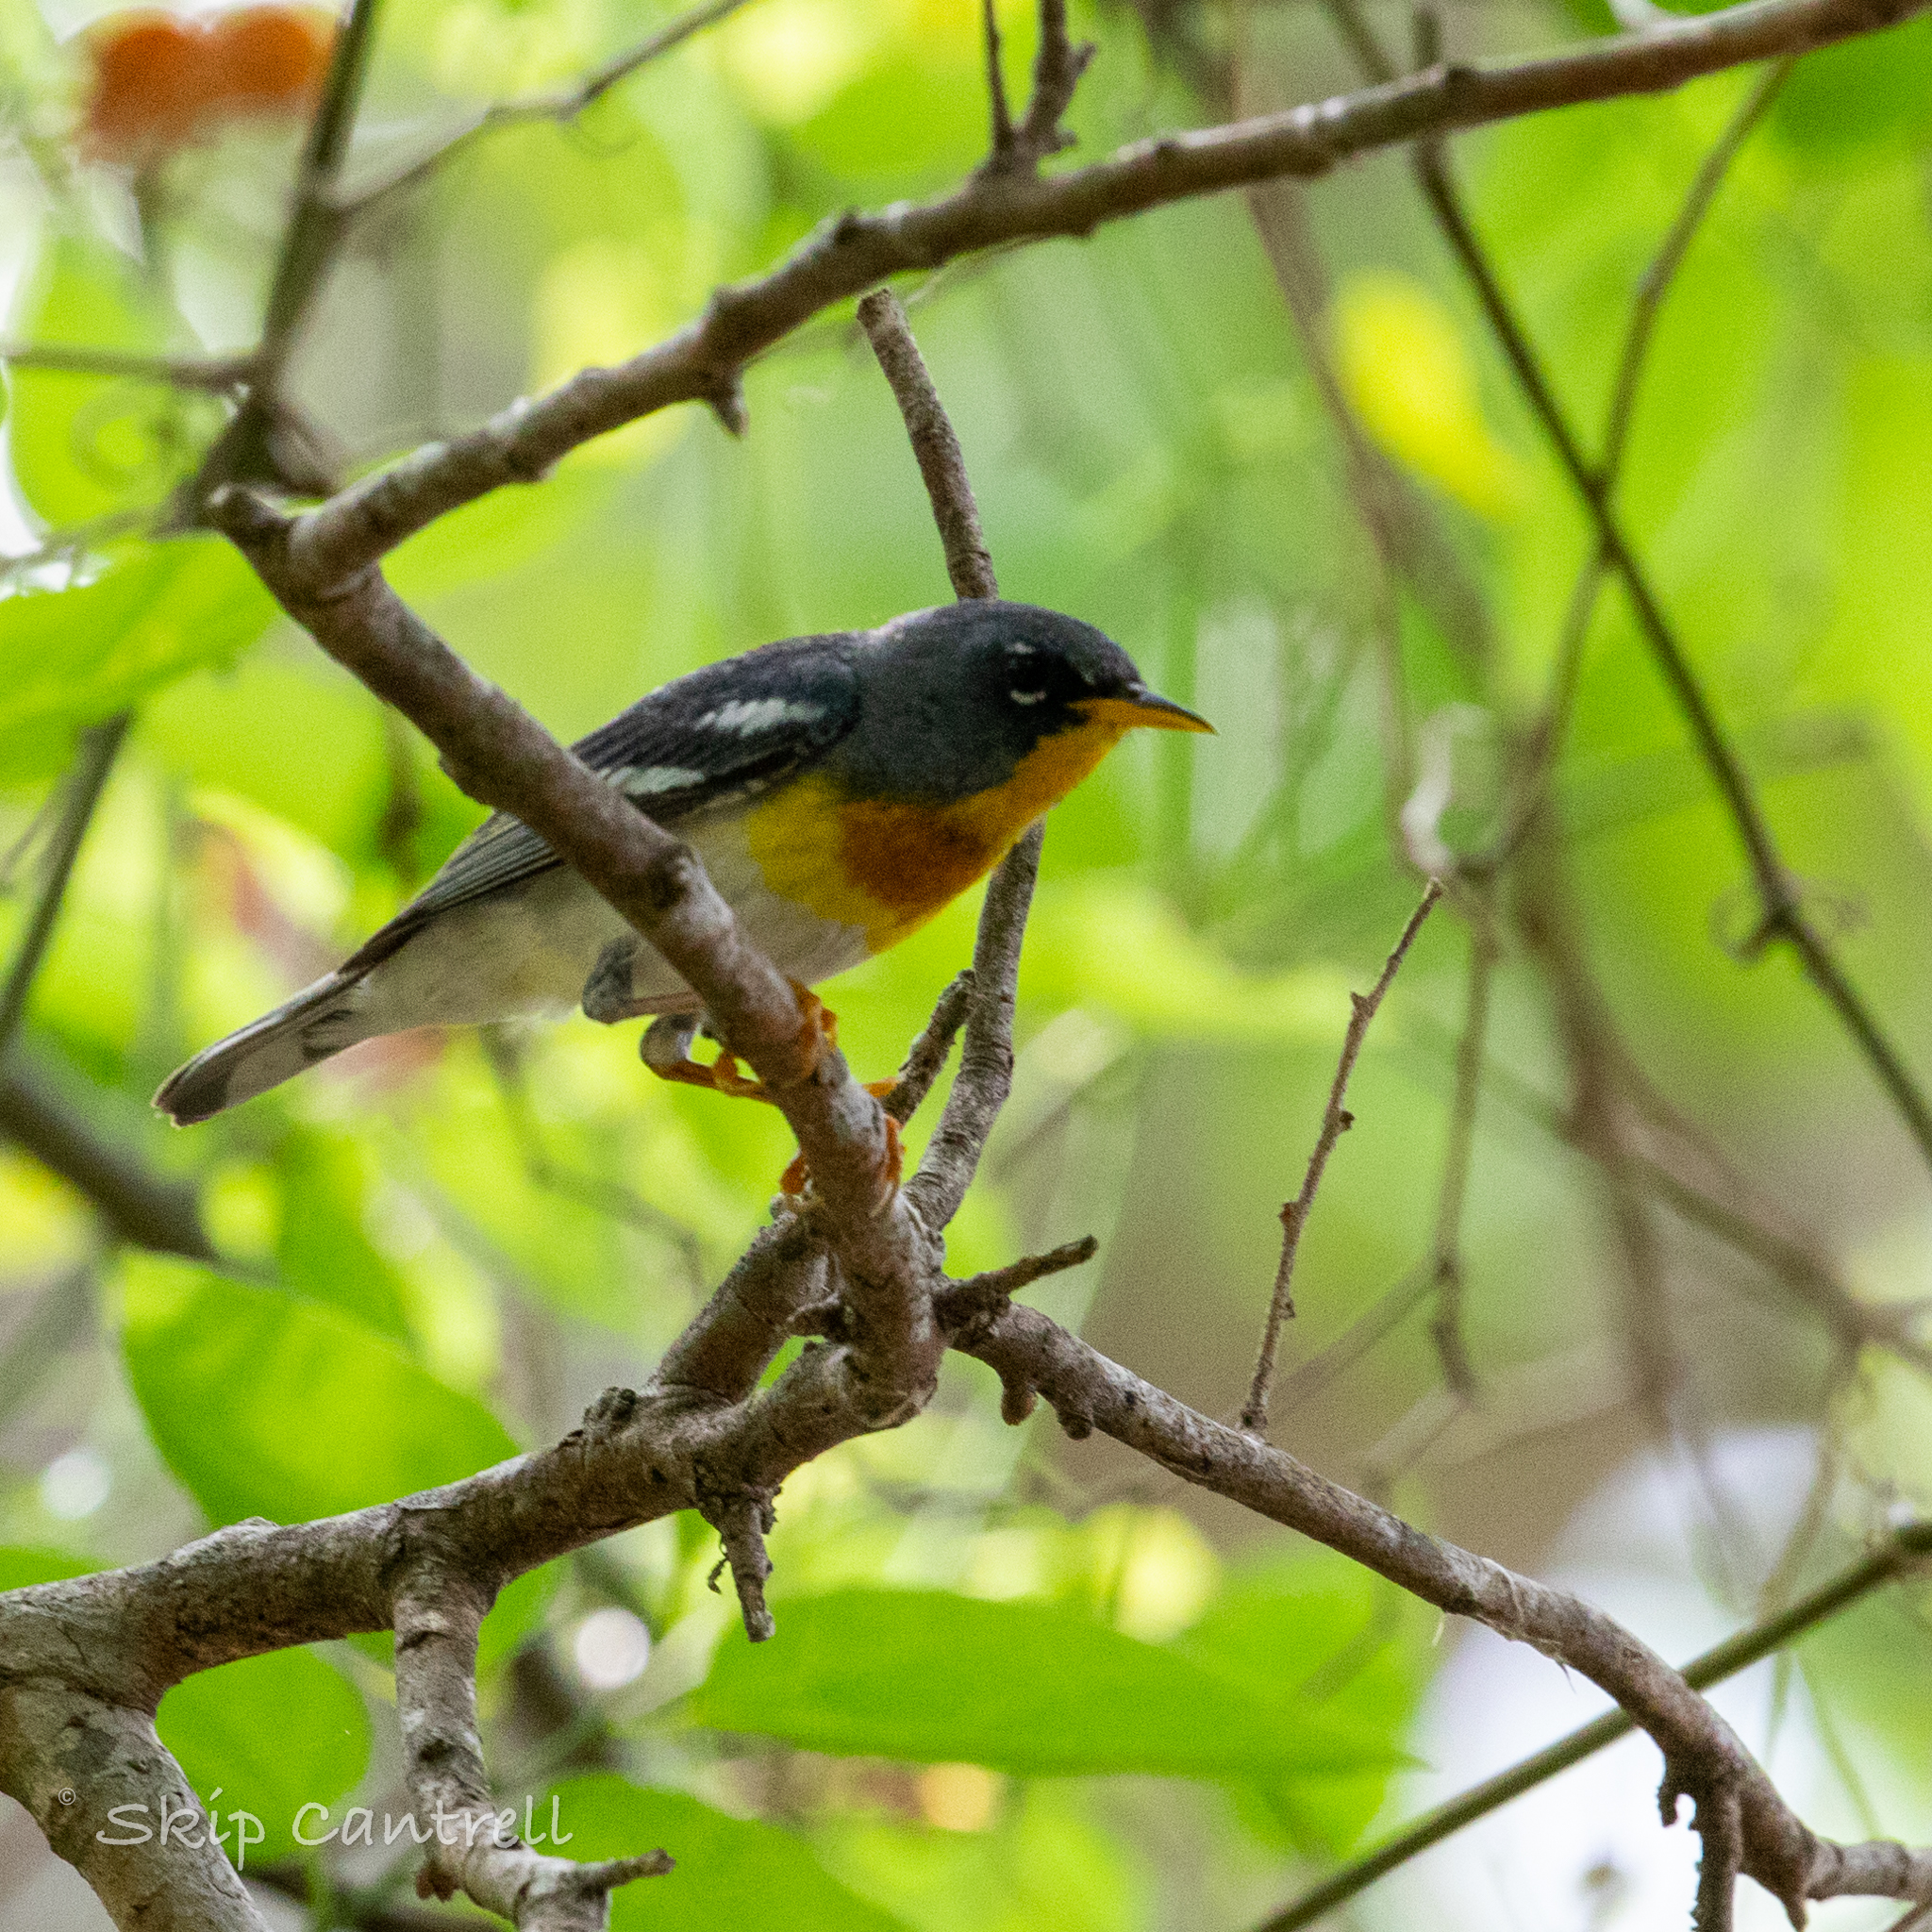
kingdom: Animalia
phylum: Chordata
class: Aves
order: Passeriformes
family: Parulidae
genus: Setophaga
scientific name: Setophaga americana
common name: Northern parula
